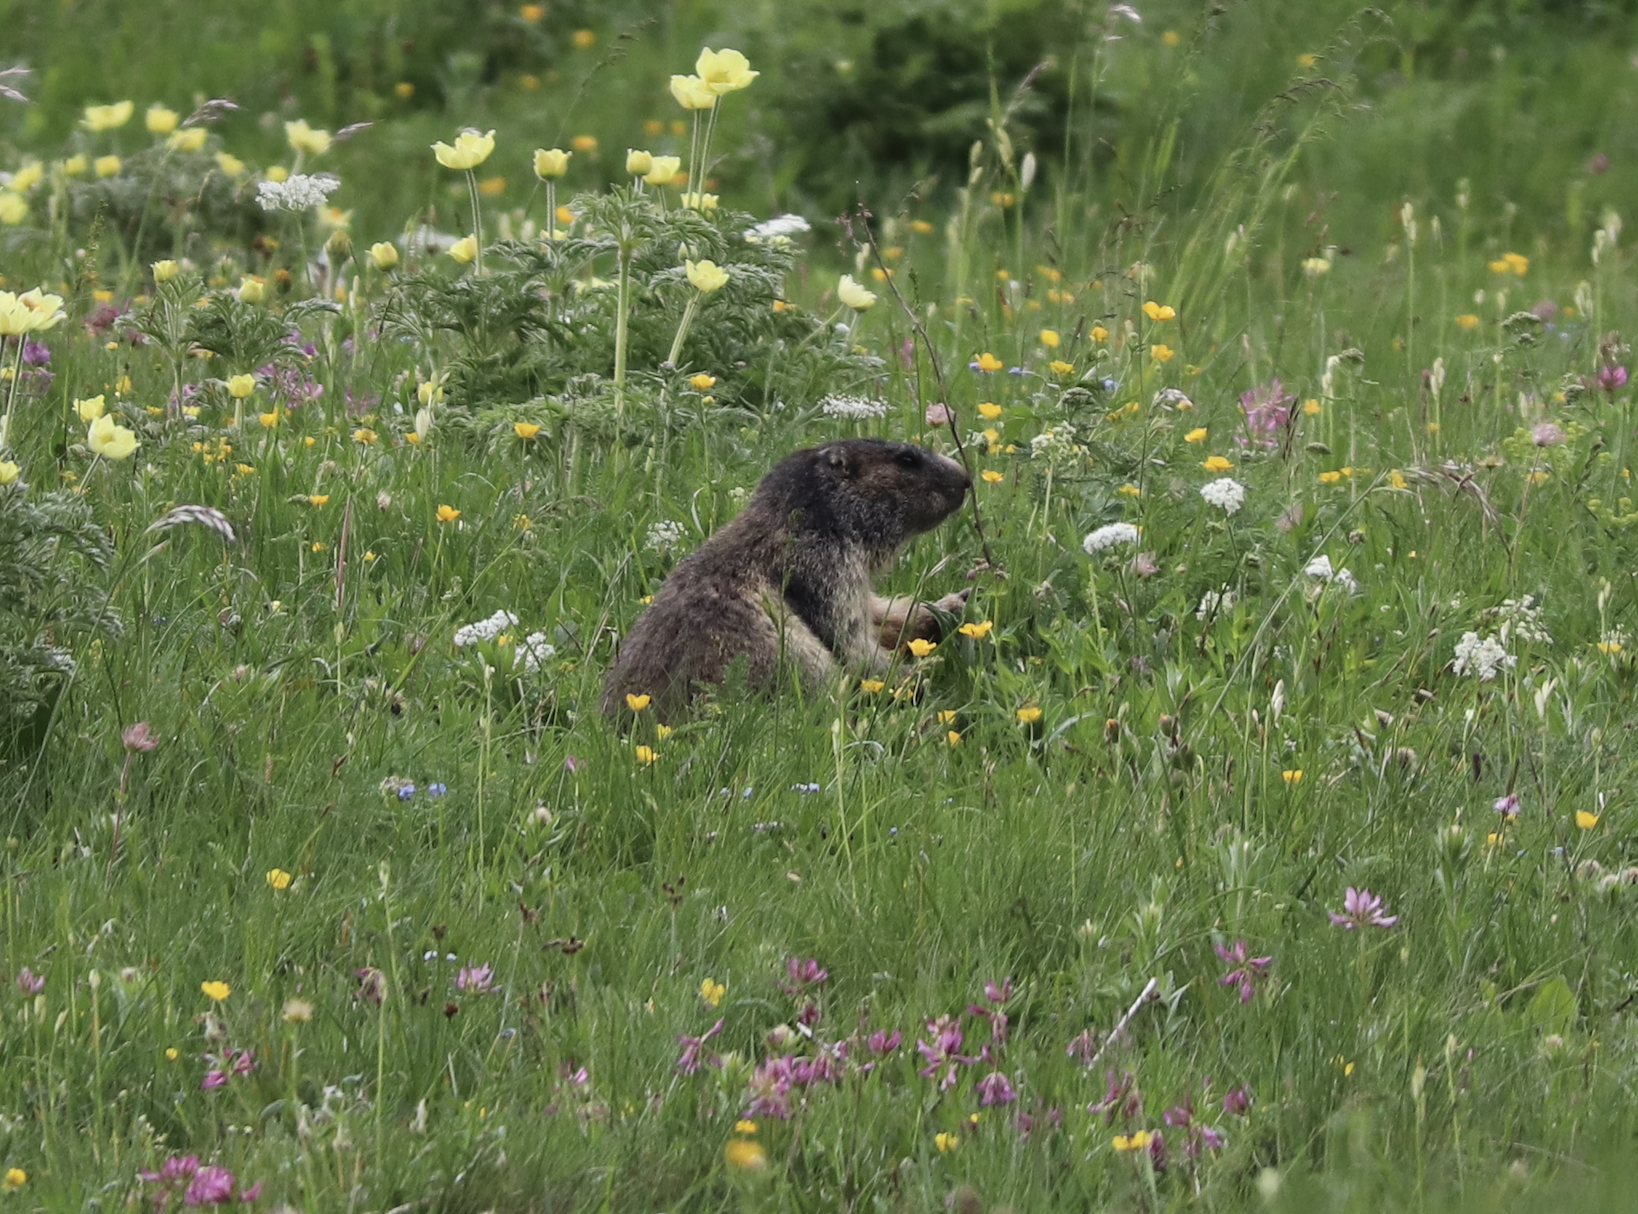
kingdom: Animalia
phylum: Chordata
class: Mammalia
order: Rodentia
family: Sciuridae
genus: Marmota
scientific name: Marmota marmota
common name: Alpine marmot
